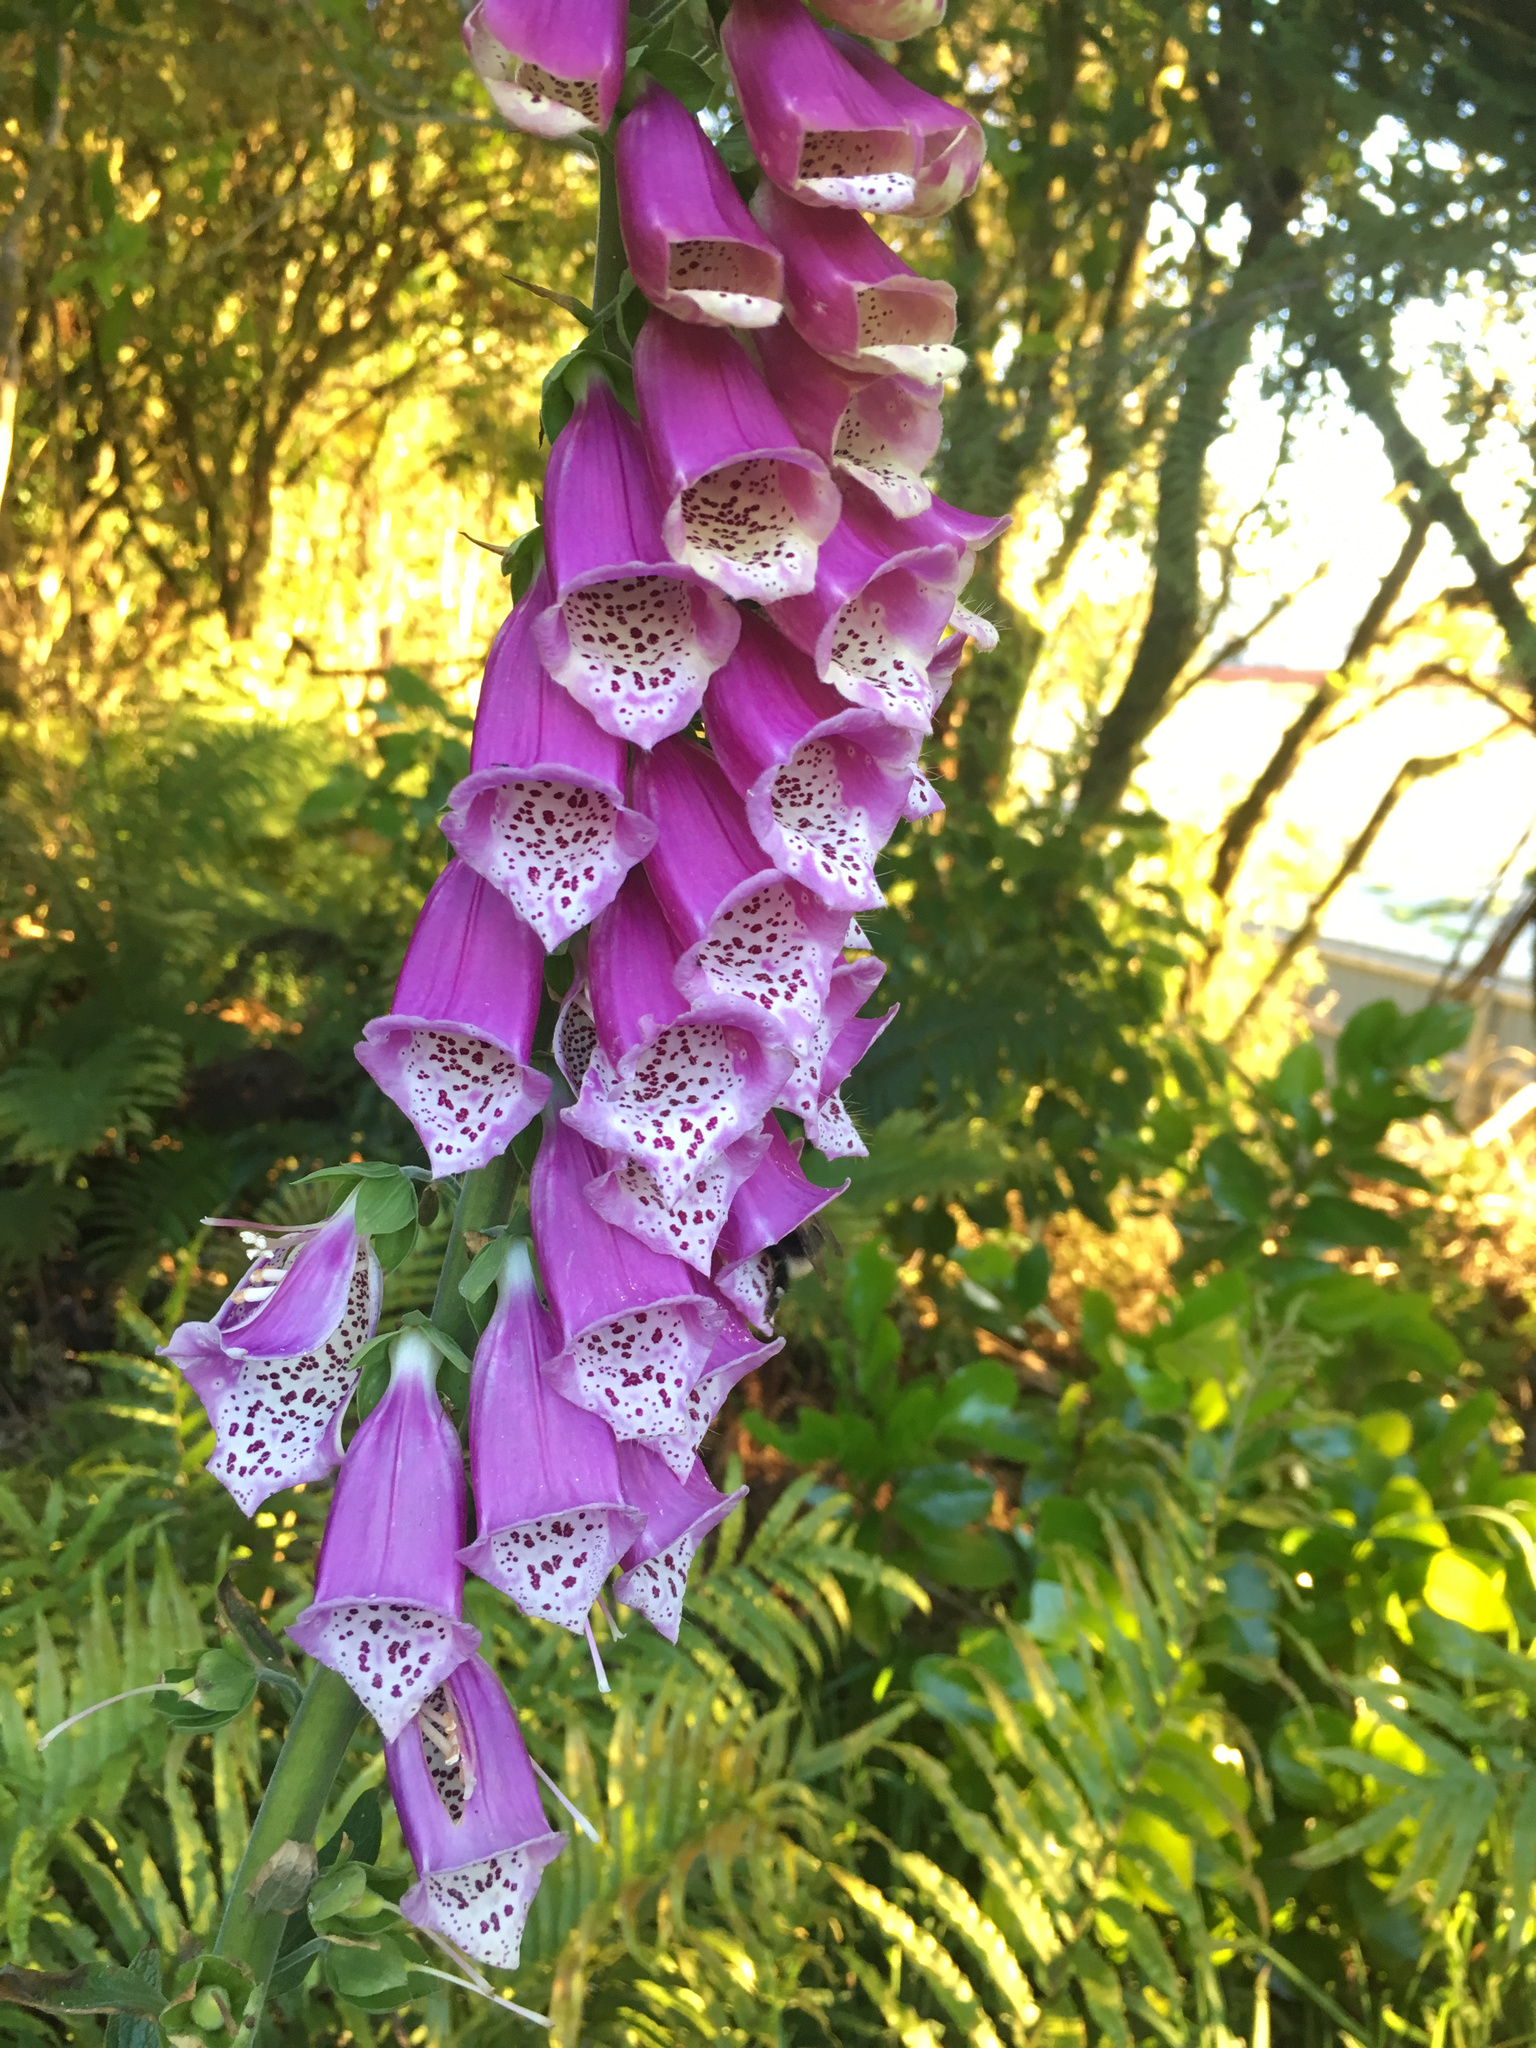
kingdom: Plantae
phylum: Tracheophyta
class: Magnoliopsida
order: Lamiales
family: Plantaginaceae
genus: Digitalis
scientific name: Digitalis purpurea
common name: Foxglove
